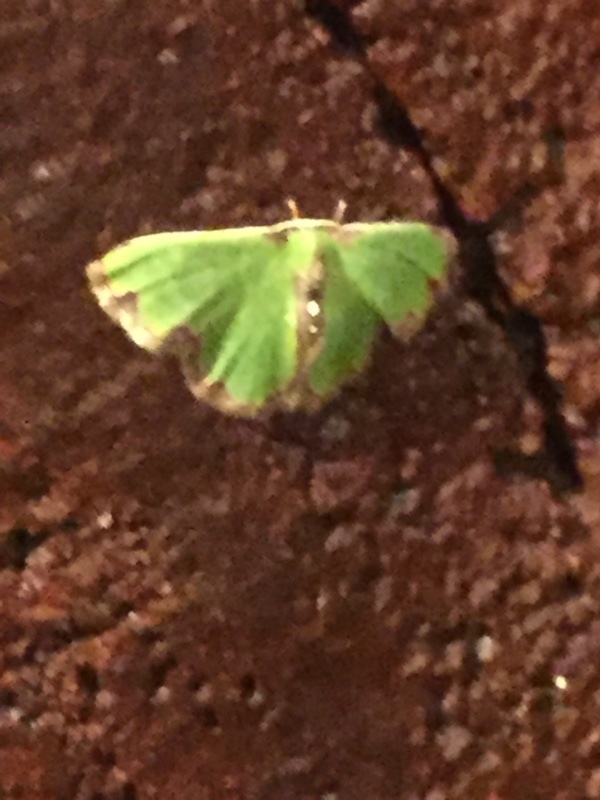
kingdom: Animalia
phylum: Arthropoda
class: Insecta
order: Lepidoptera
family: Geometridae
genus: Synchlora
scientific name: Synchlora xysteraria
